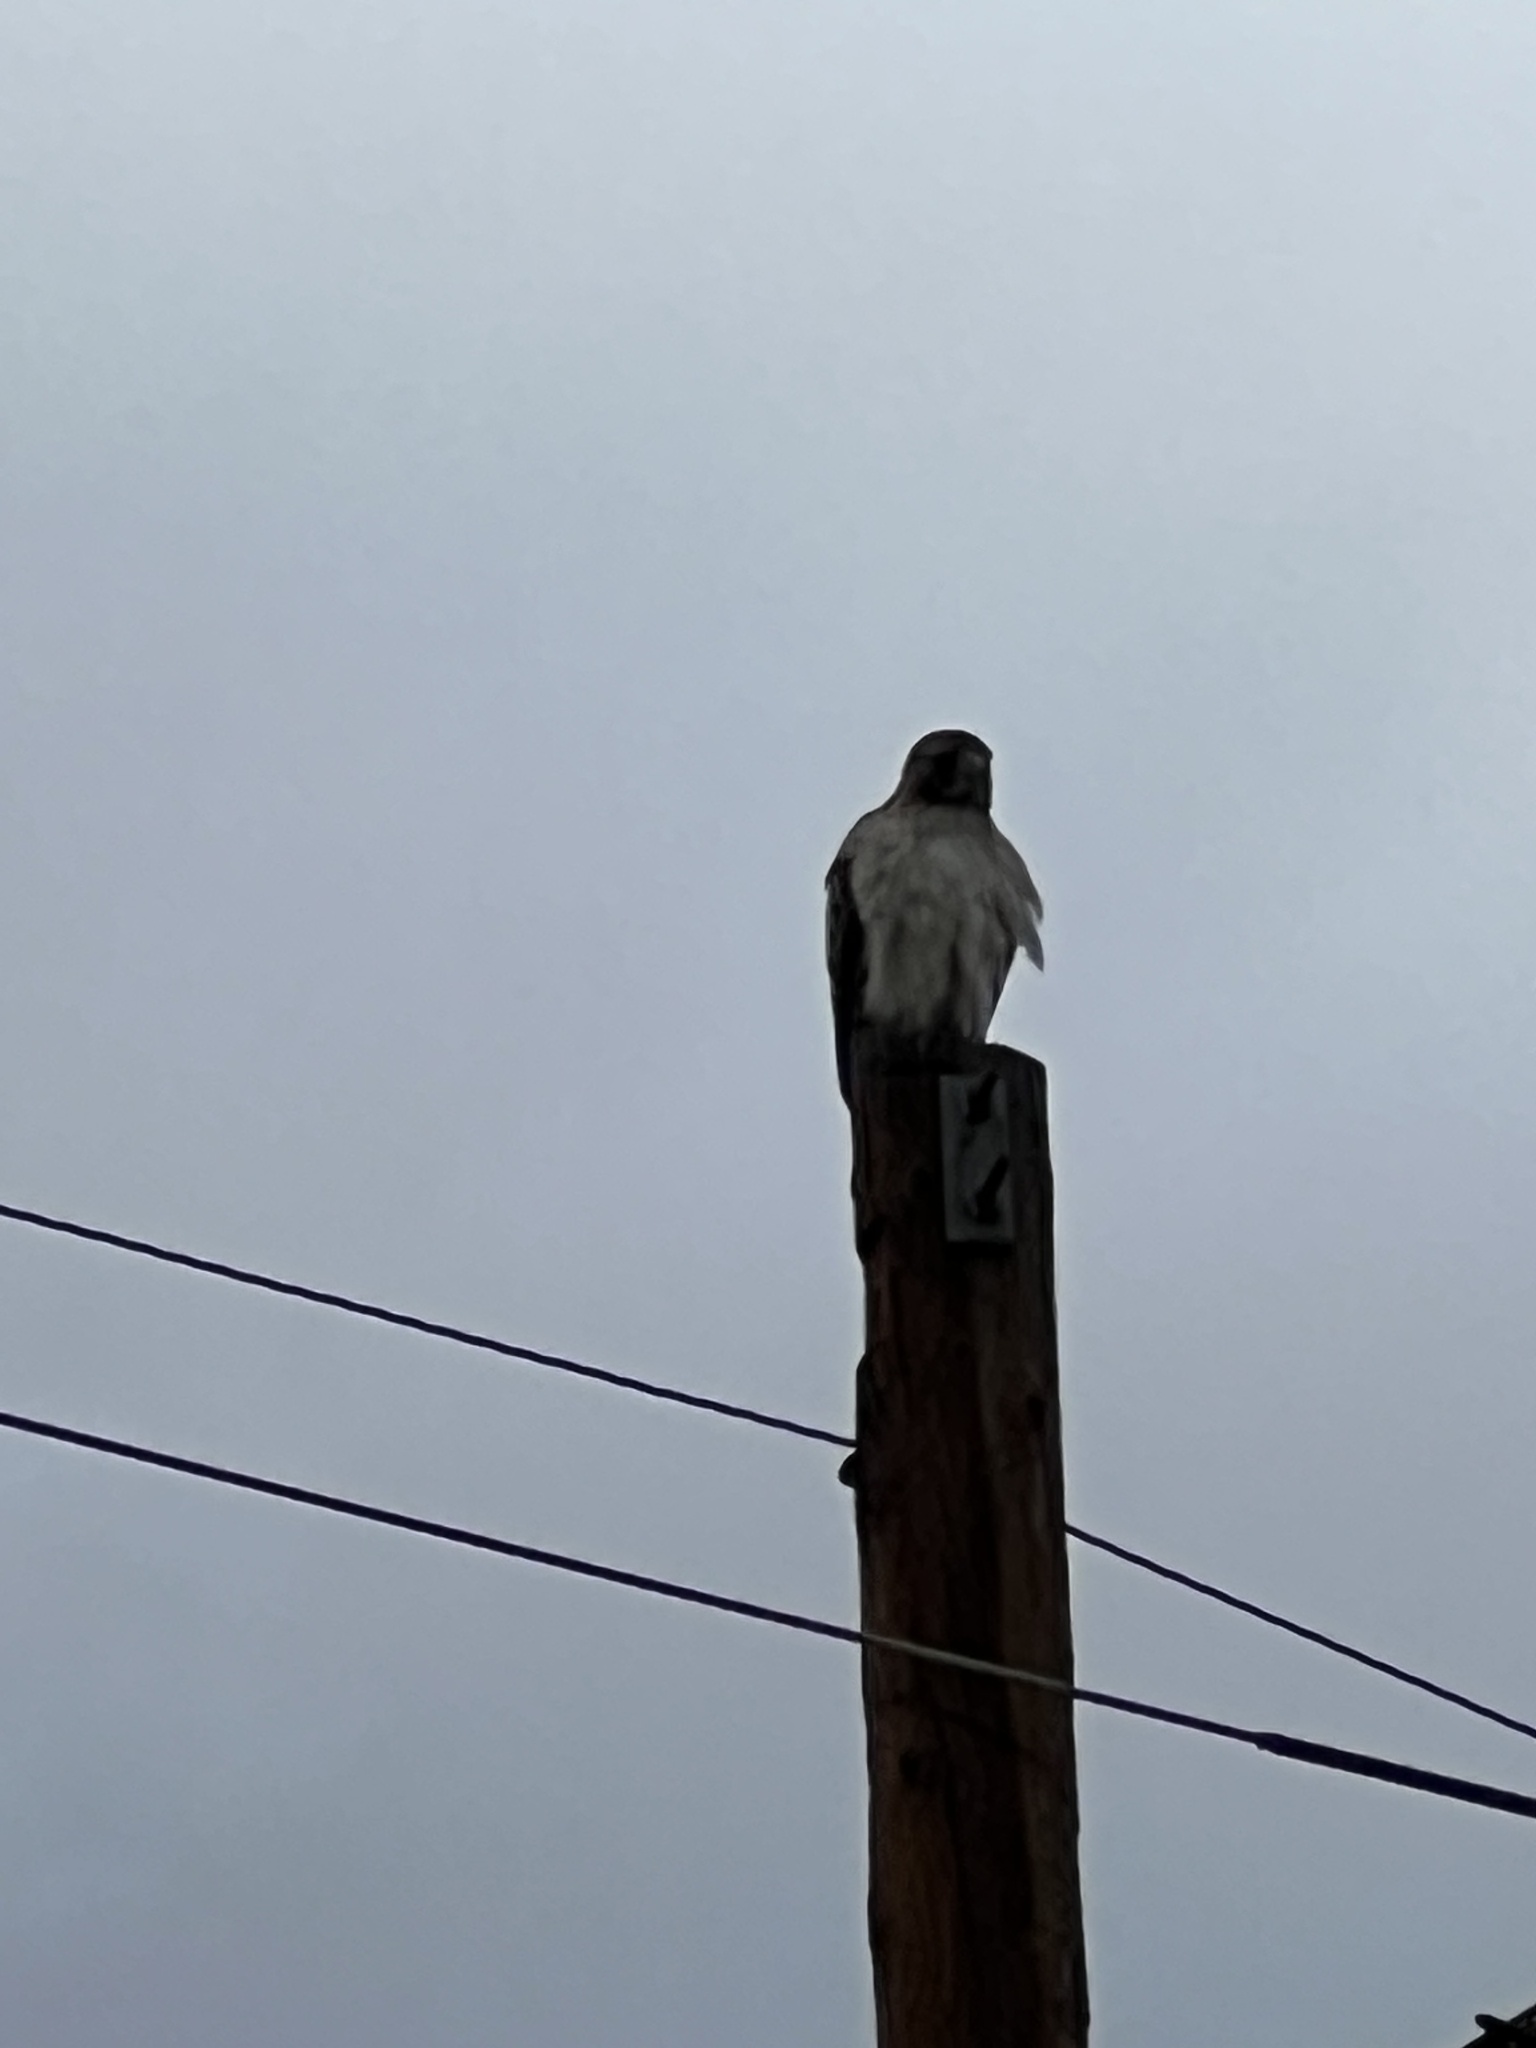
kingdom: Animalia
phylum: Chordata
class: Aves
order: Accipitriformes
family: Accipitridae
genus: Buteo
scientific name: Buteo jamaicensis
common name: Red-tailed hawk
